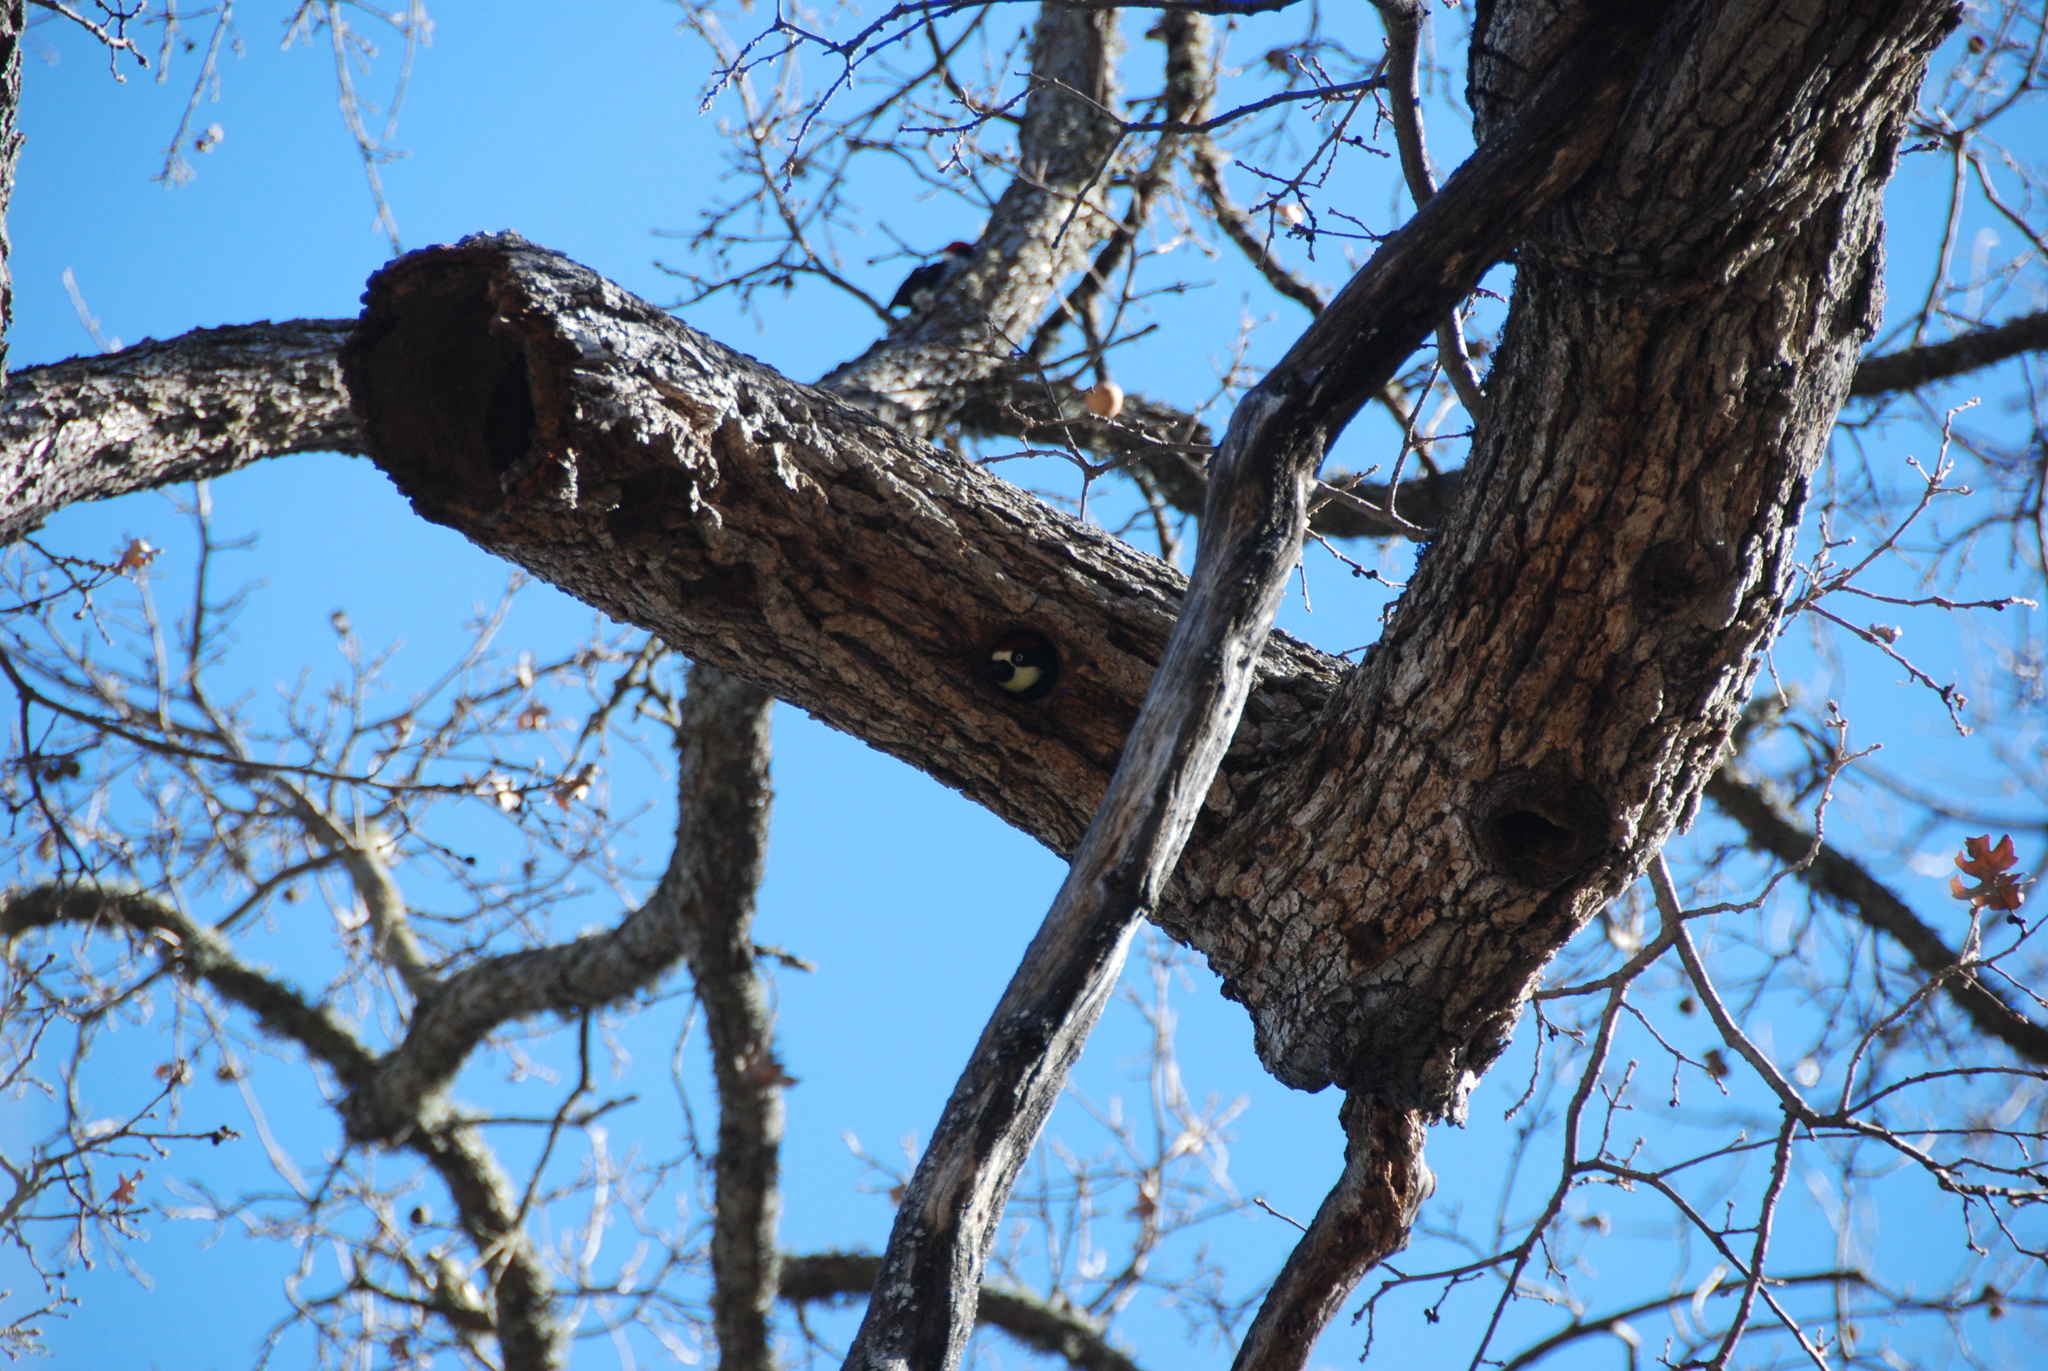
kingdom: Animalia
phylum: Chordata
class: Aves
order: Piciformes
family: Picidae
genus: Melanerpes
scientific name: Melanerpes formicivorus
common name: Acorn woodpecker
